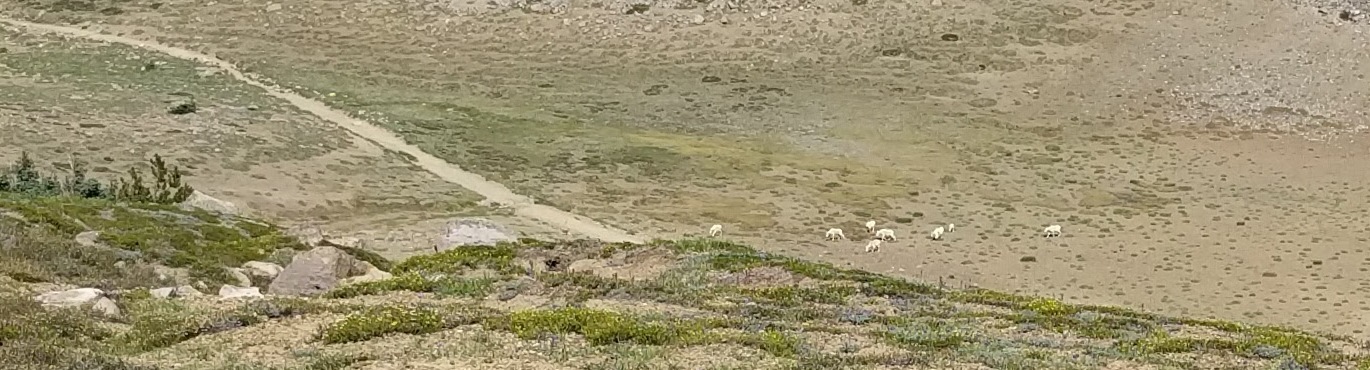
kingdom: Animalia
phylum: Chordata
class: Mammalia
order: Artiodactyla
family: Bovidae
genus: Oreamnos
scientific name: Oreamnos americanus
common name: Mountain goat
